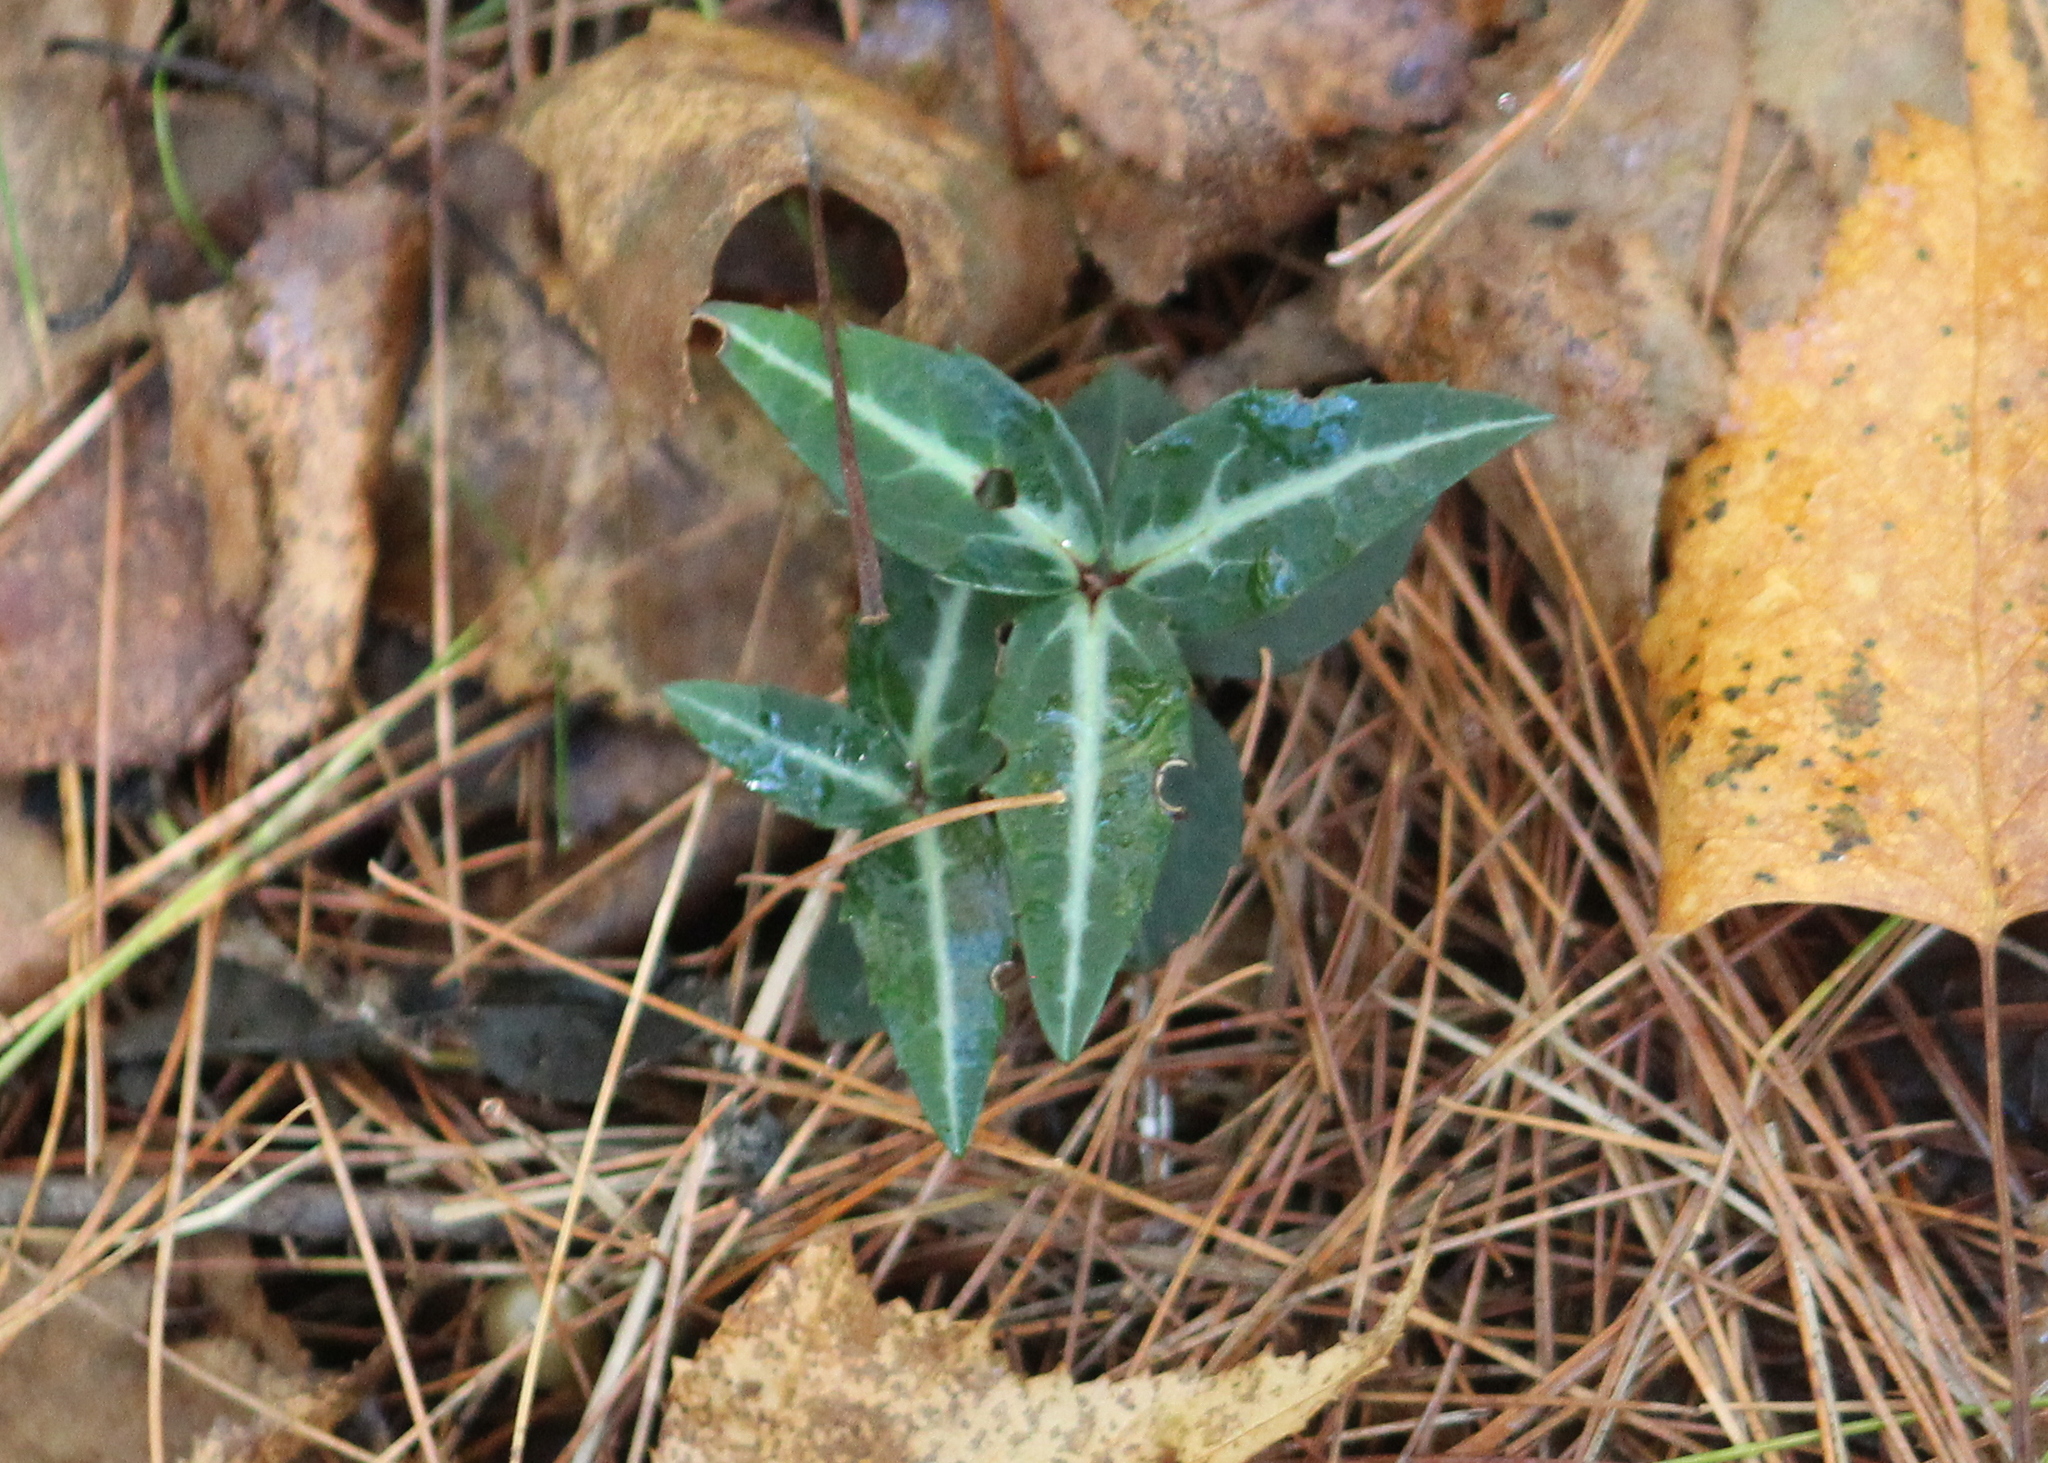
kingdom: Plantae
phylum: Tracheophyta
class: Magnoliopsida
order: Ericales
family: Ericaceae
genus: Chimaphila
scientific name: Chimaphila maculata
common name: Spotted pipsissewa
